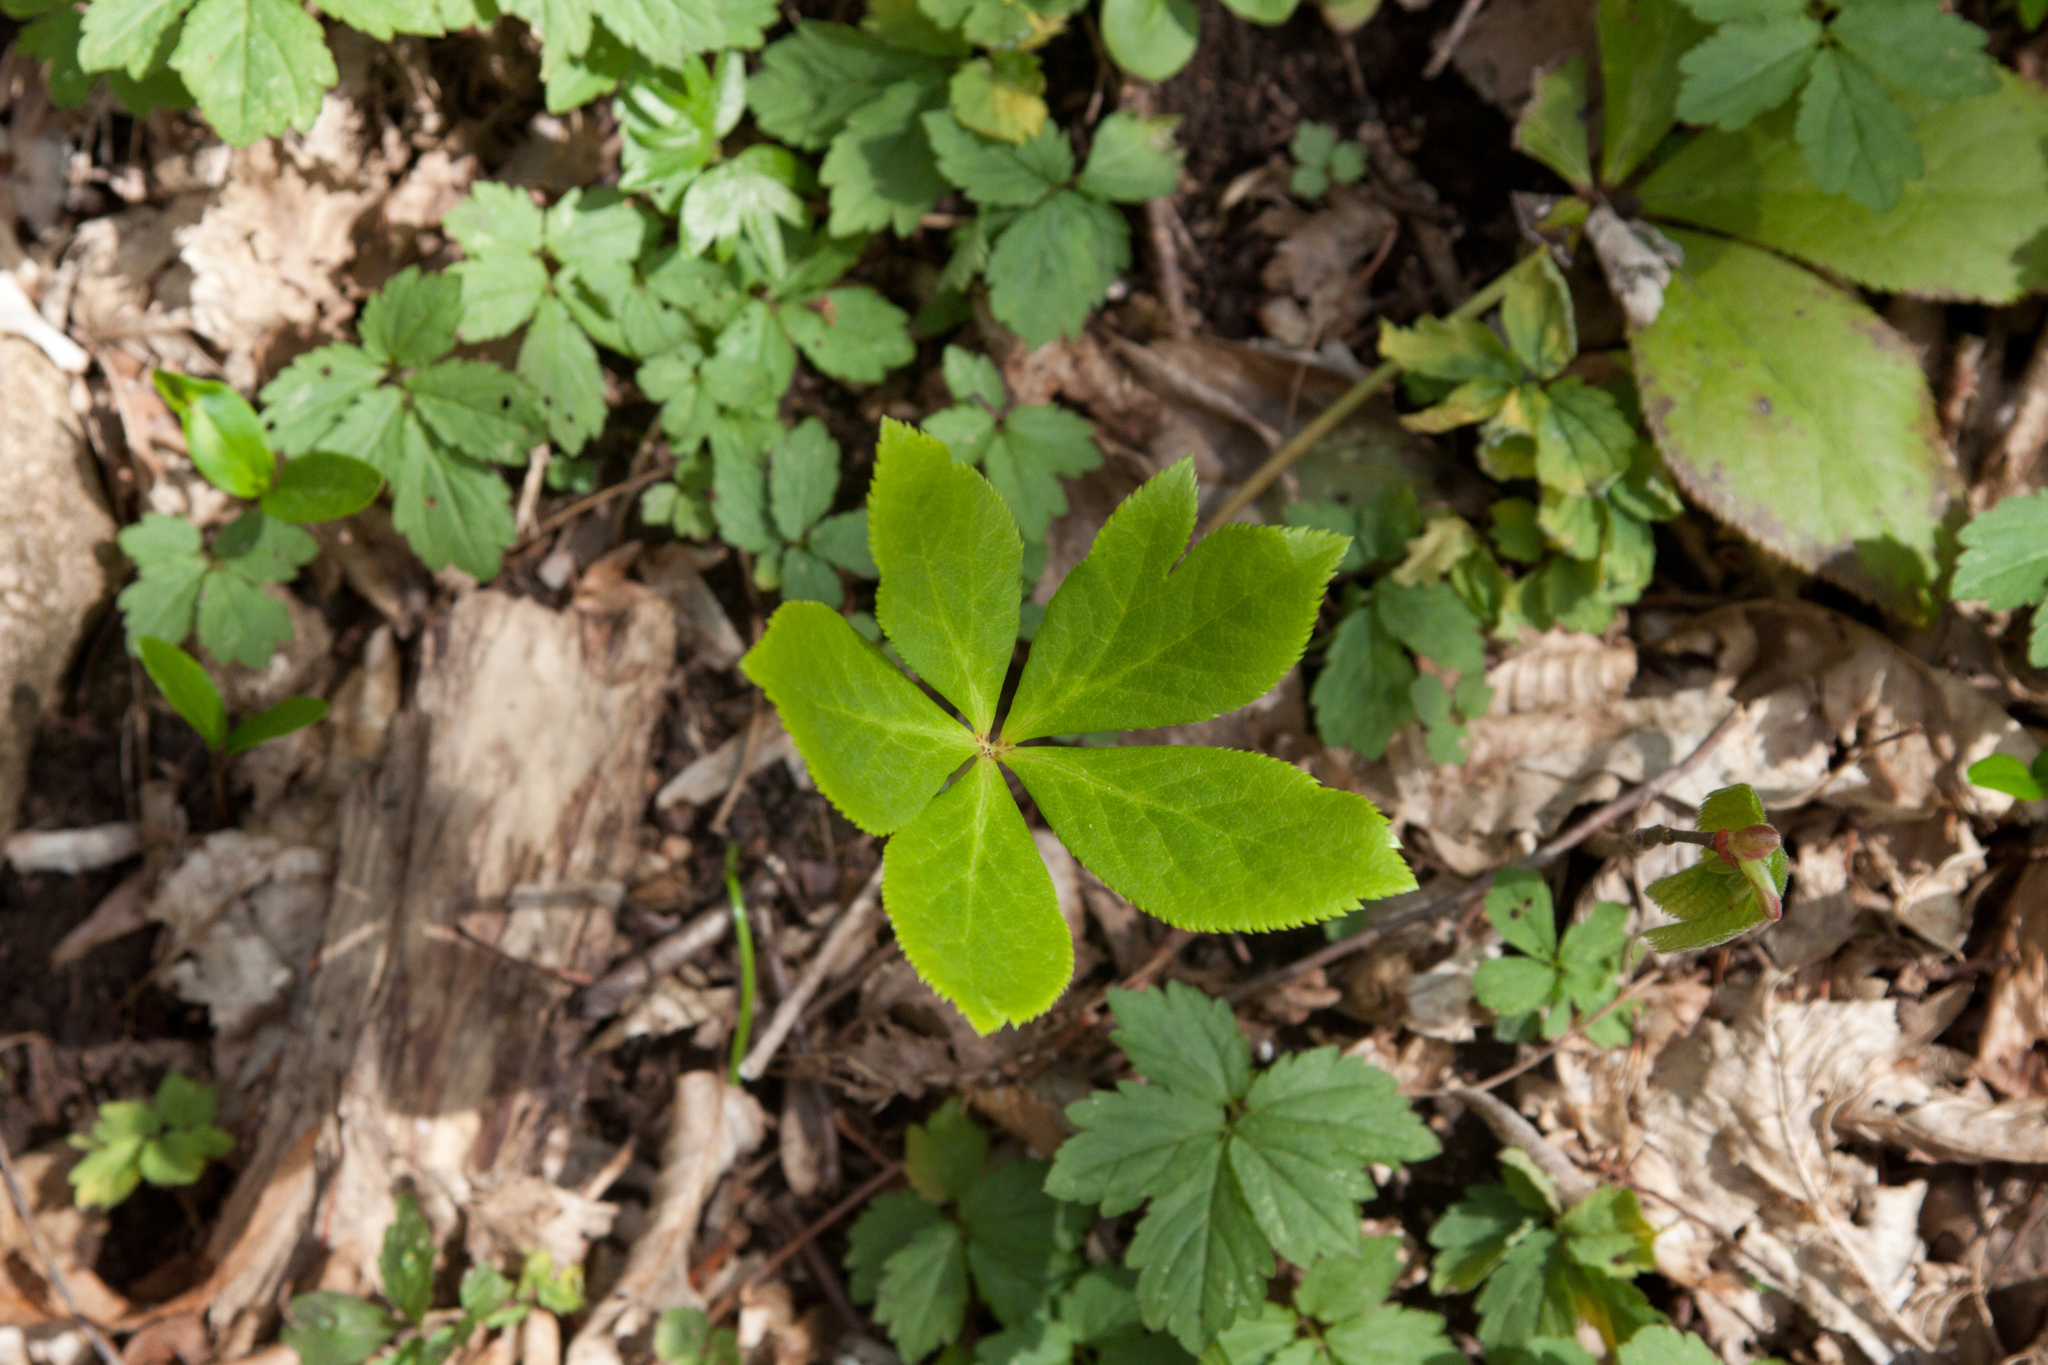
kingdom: Plantae
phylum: Tracheophyta
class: Magnoliopsida
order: Ranunculales
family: Ranunculaceae
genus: Helleborus
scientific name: Helleborus orientalis
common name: Lenten-rose
